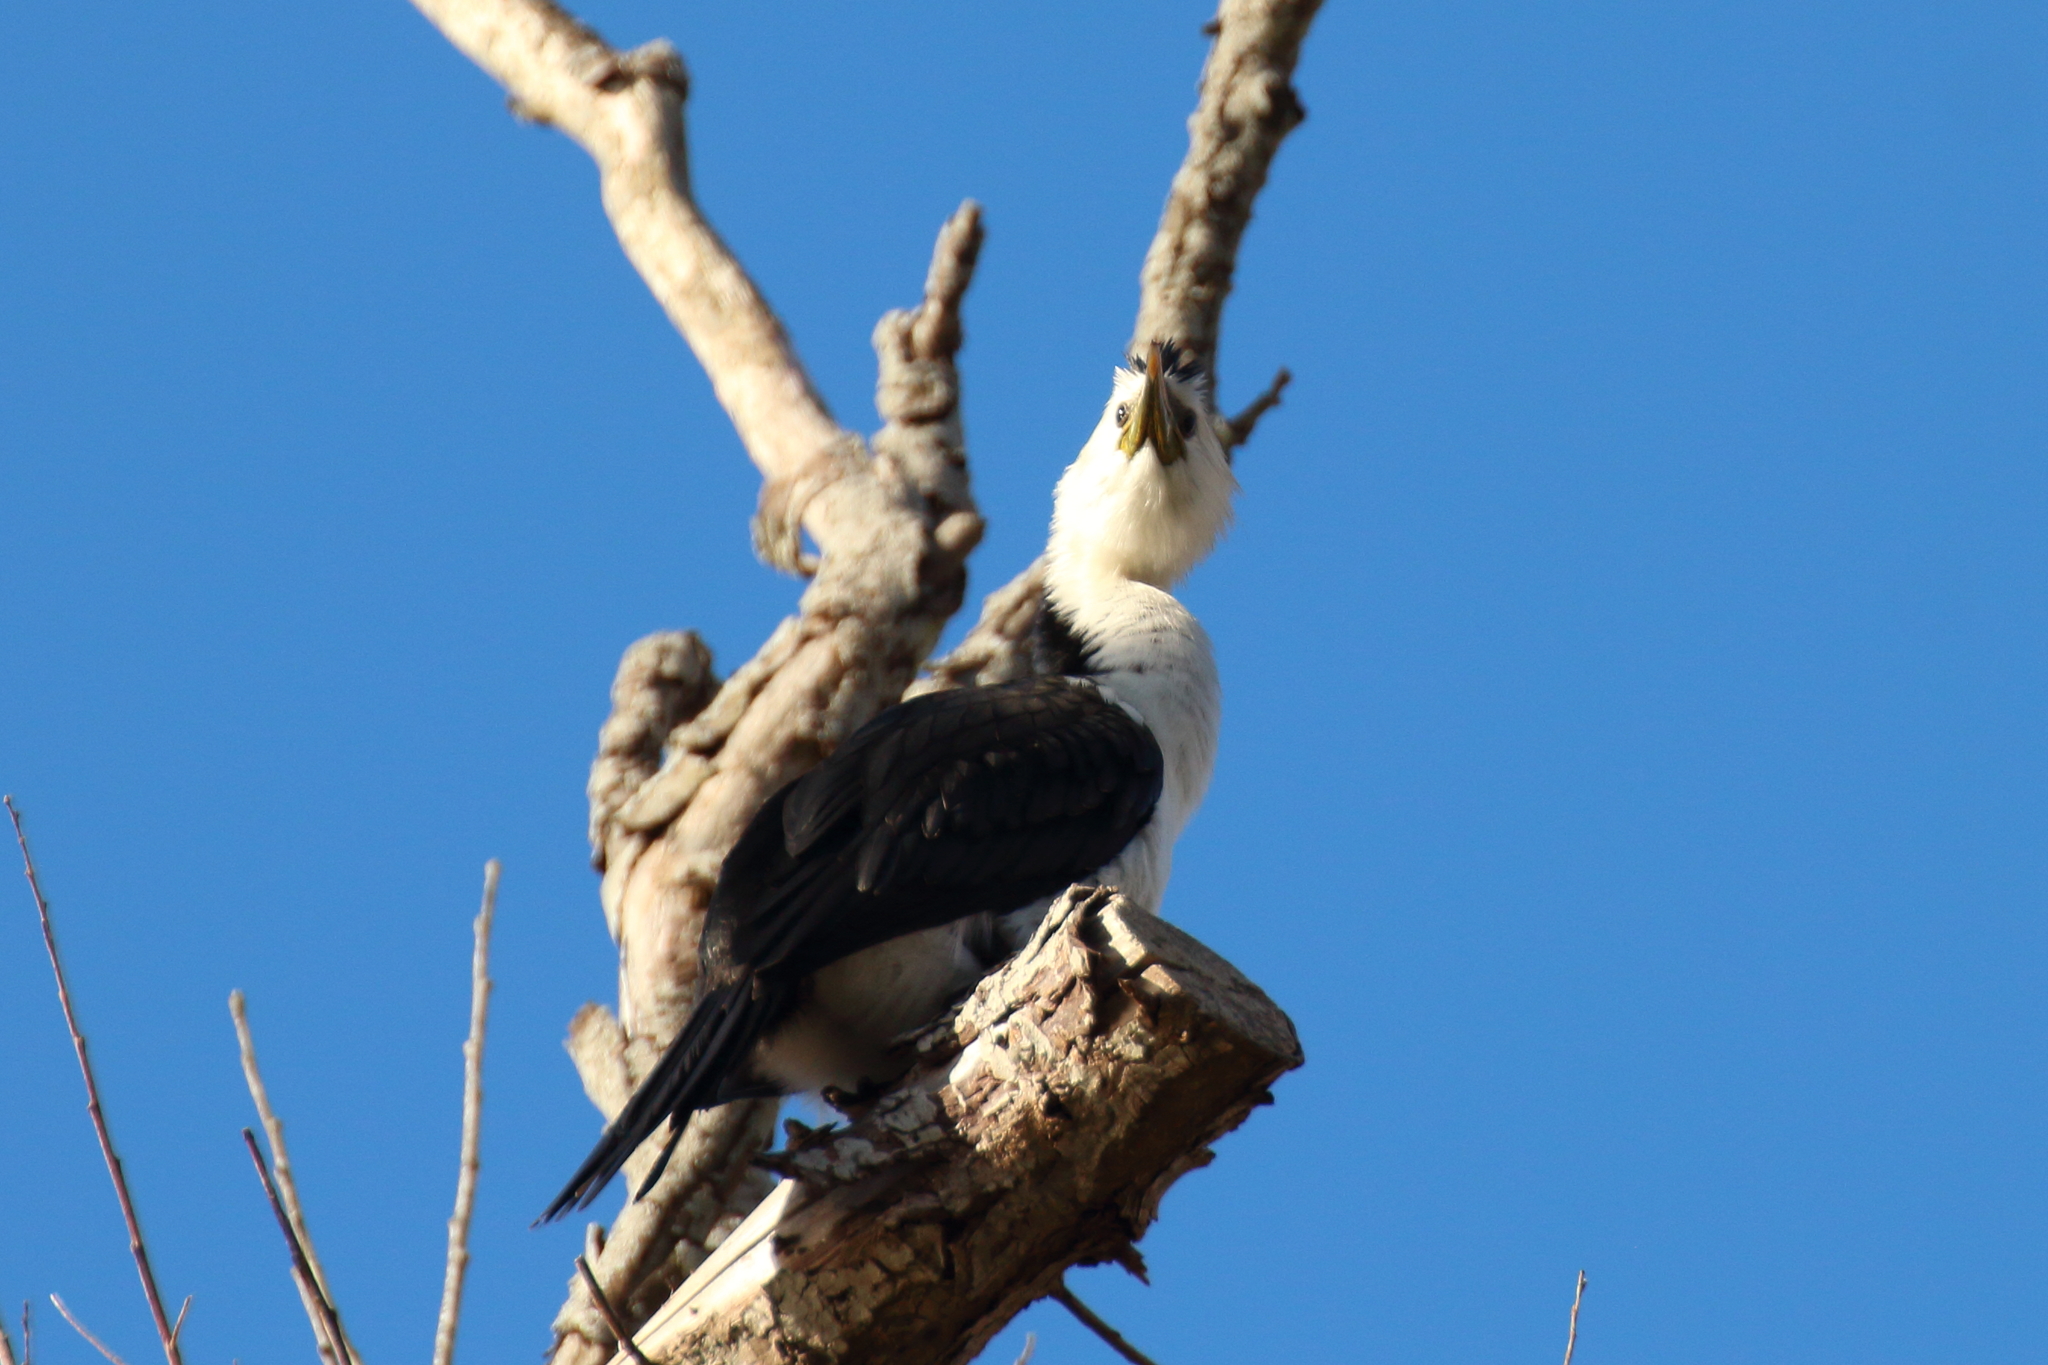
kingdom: Animalia
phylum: Chordata
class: Aves
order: Suliformes
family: Phalacrocoracidae
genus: Microcarbo
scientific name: Microcarbo melanoleucos
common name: Little pied cormorant
